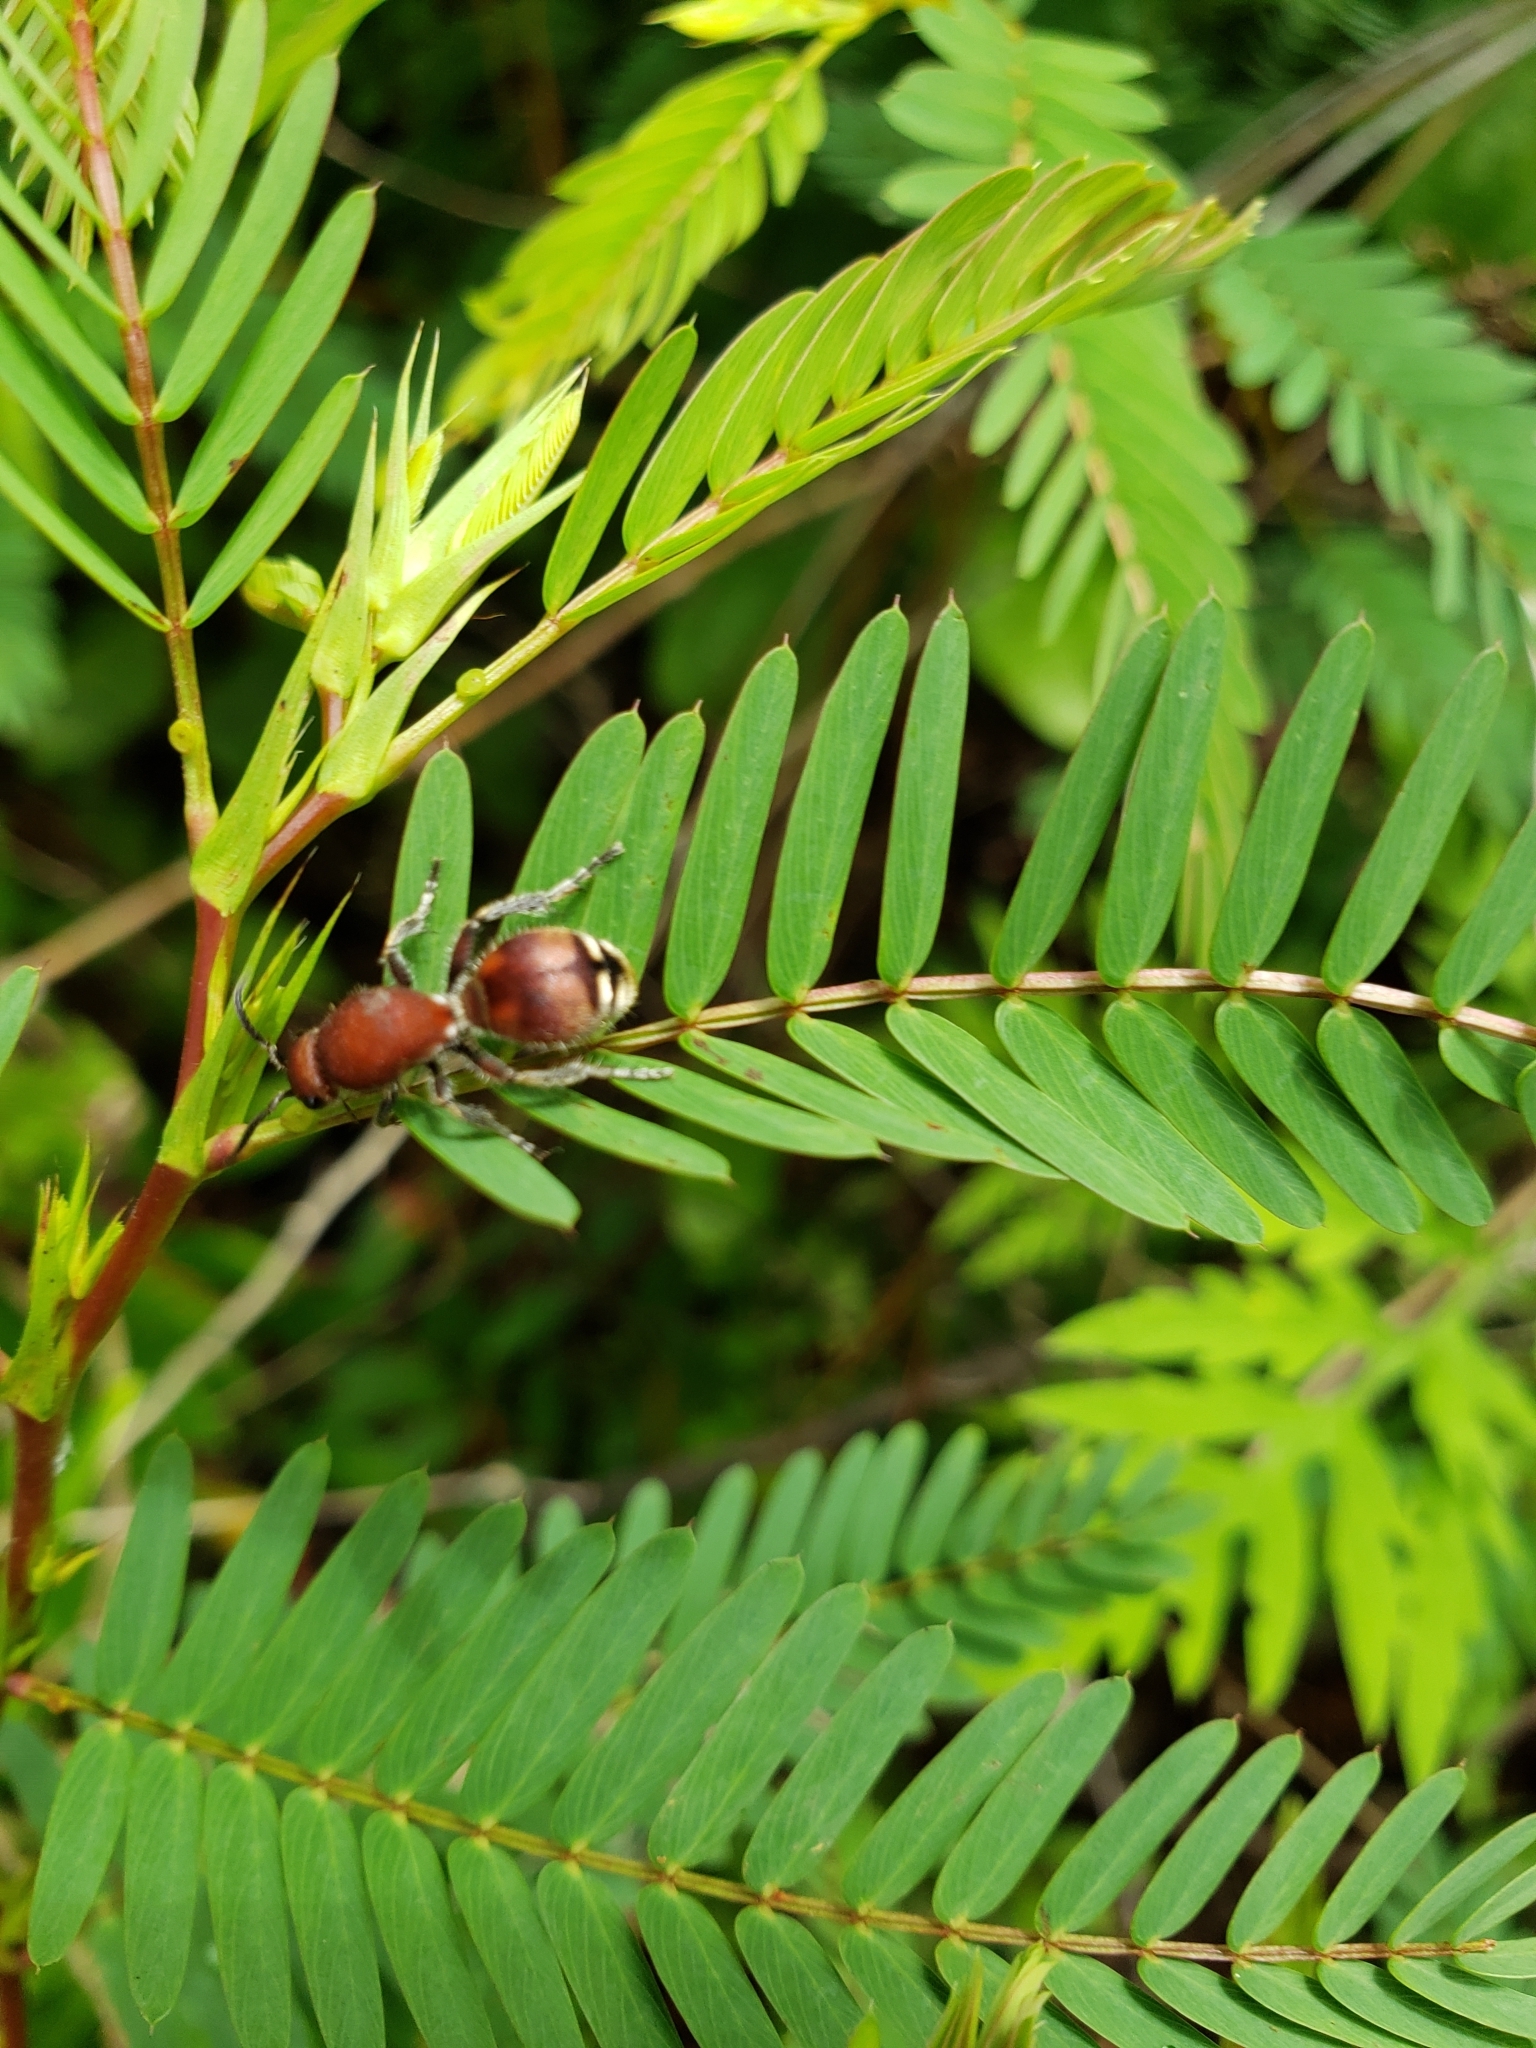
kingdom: Animalia
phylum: Arthropoda
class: Insecta
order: Hymenoptera
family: Mutillidae
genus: Dasymutilla
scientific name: Dasymutilla
